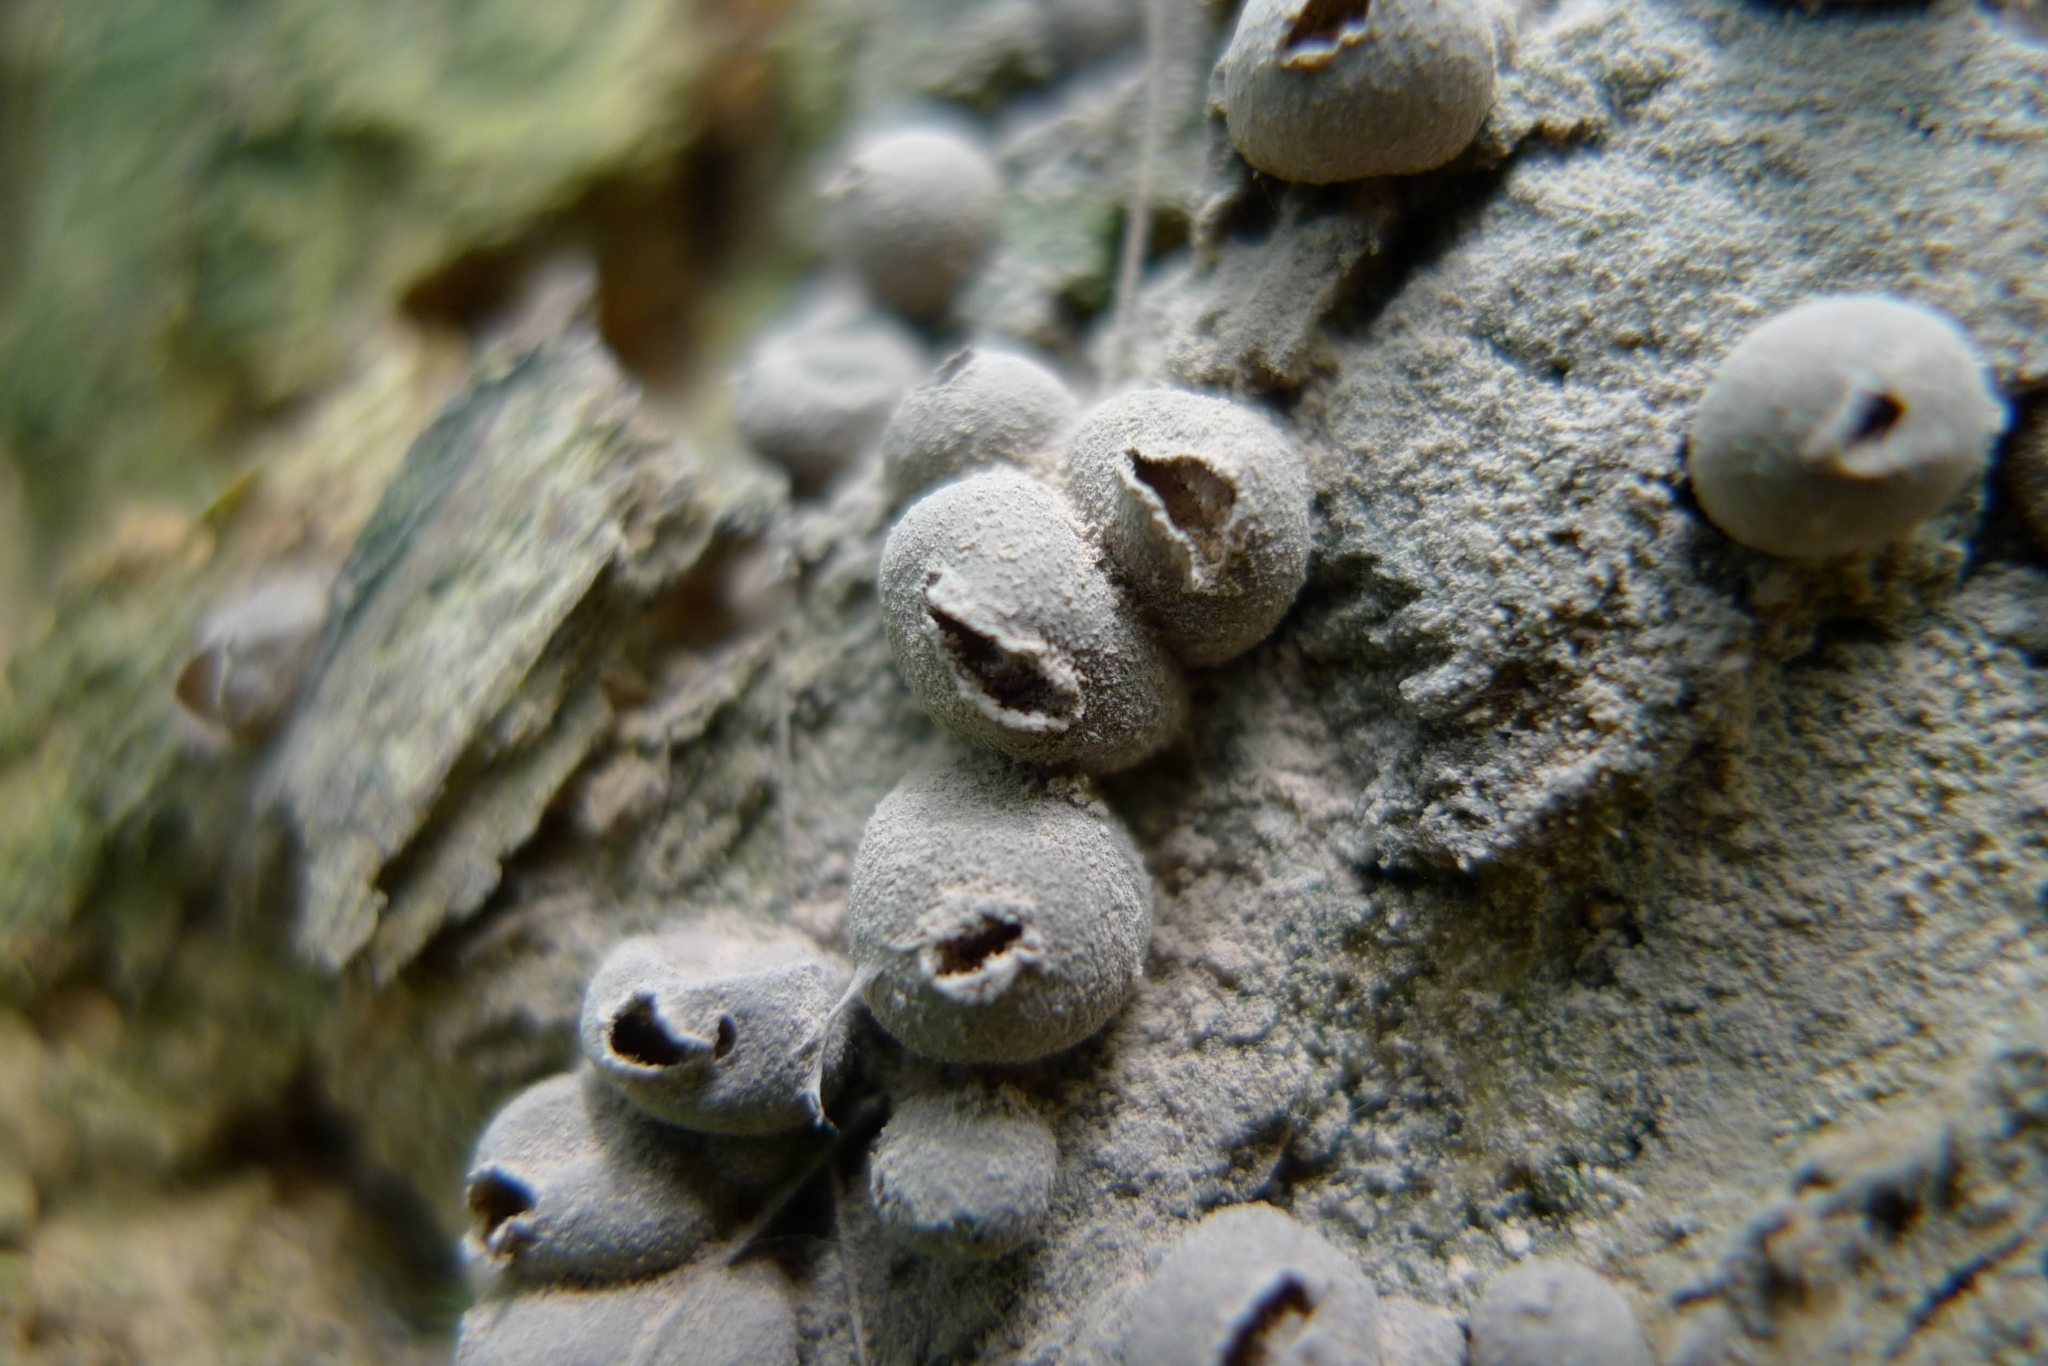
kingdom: Protozoa
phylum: Mycetozoa
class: Myxomycetes
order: Cribrariales
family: Tubiferaceae
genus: Lycogala
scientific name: Lycogala epidendrum
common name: Wolf's milk
